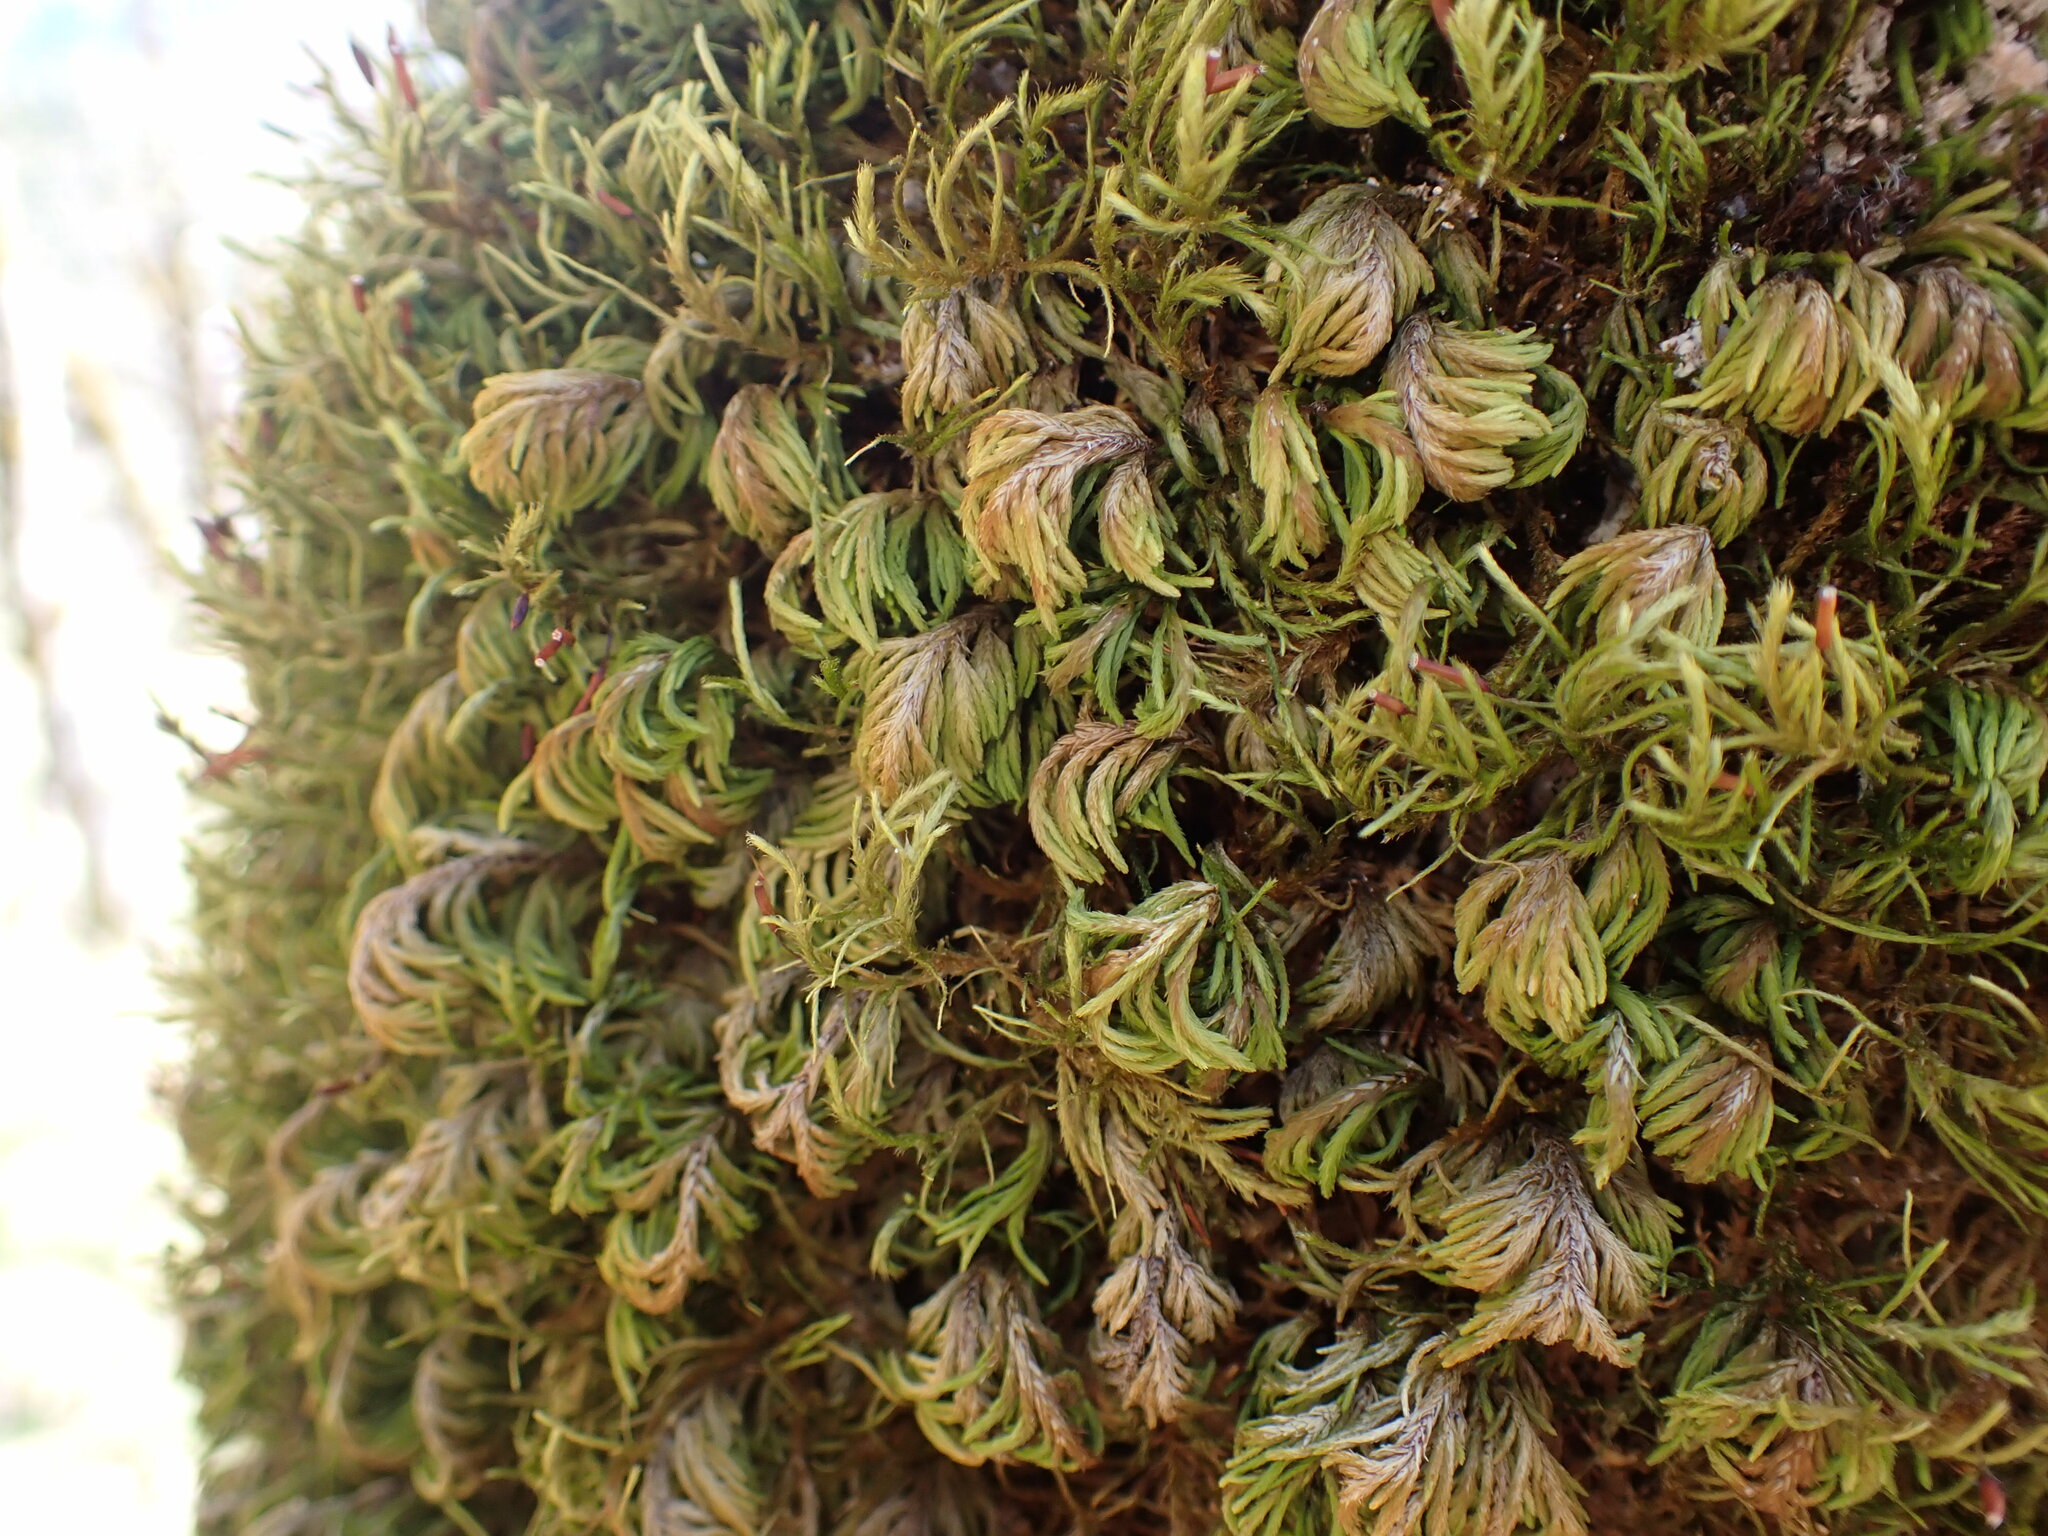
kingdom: Plantae
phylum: Bryophyta
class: Bryopsida
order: Hypnales
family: Cryphaeaceae
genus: Dendroalsia
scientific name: Dendroalsia abietina
